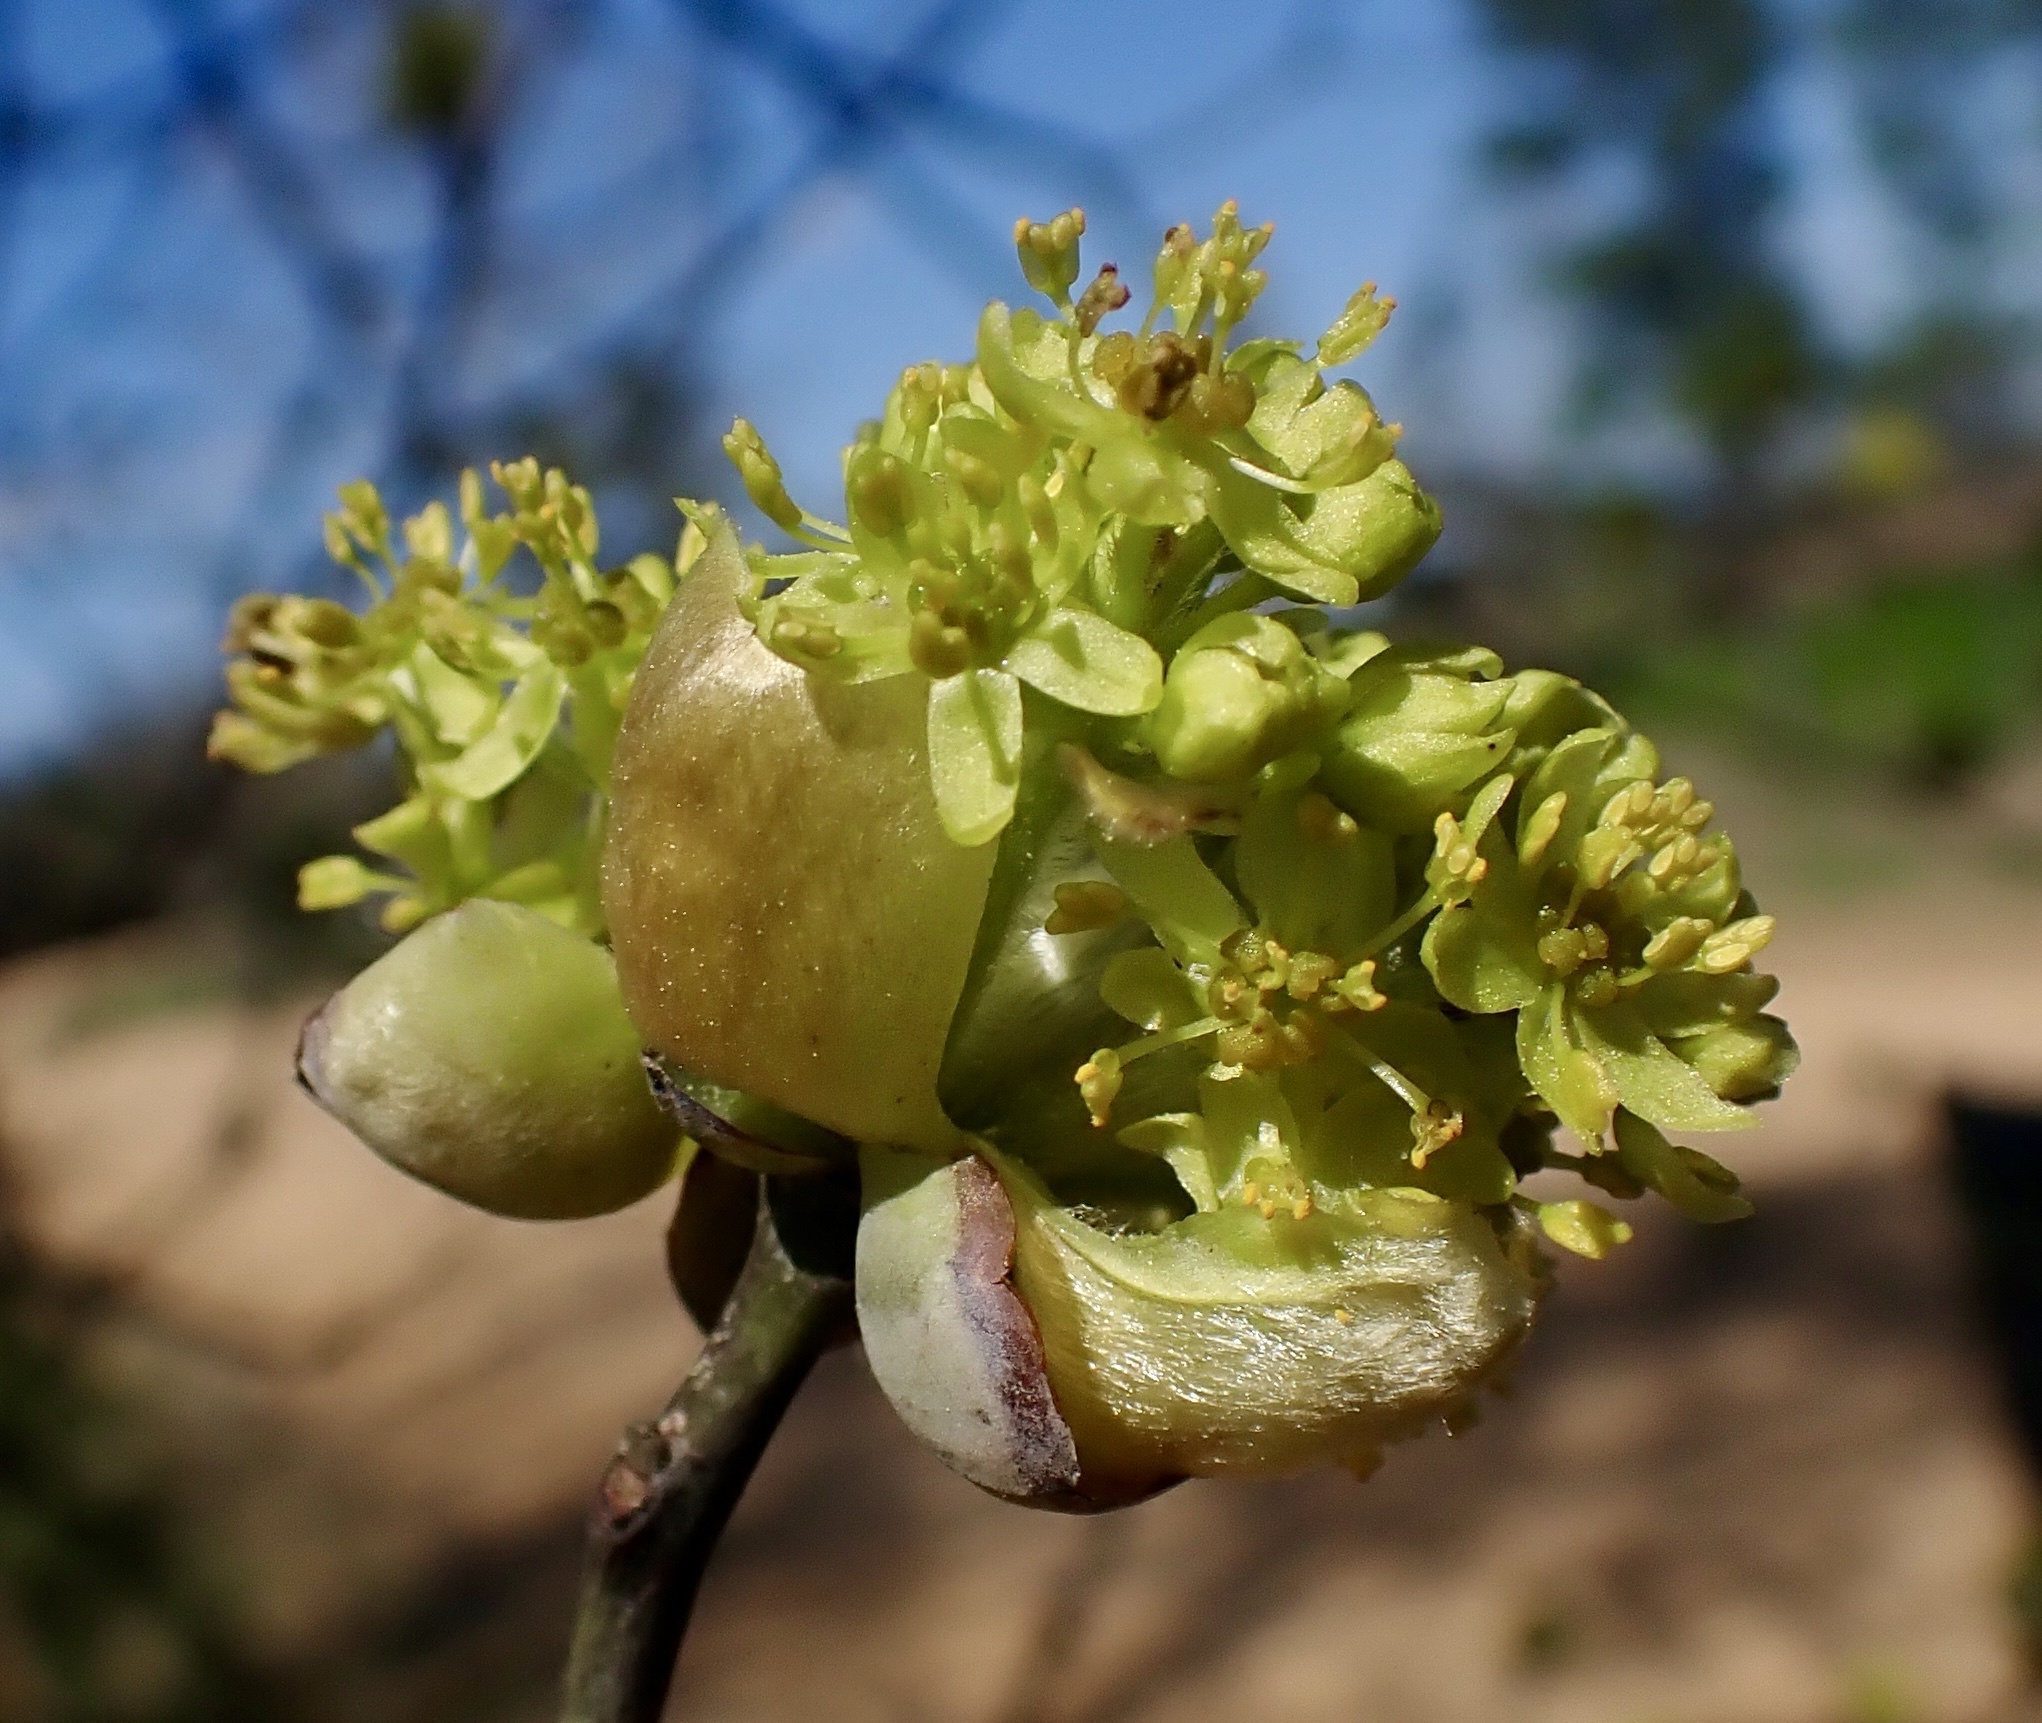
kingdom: Plantae
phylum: Tracheophyta
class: Magnoliopsida
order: Laurales
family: Lauraceae
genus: Sassafras
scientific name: Sassafras albidum
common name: Sassafras
